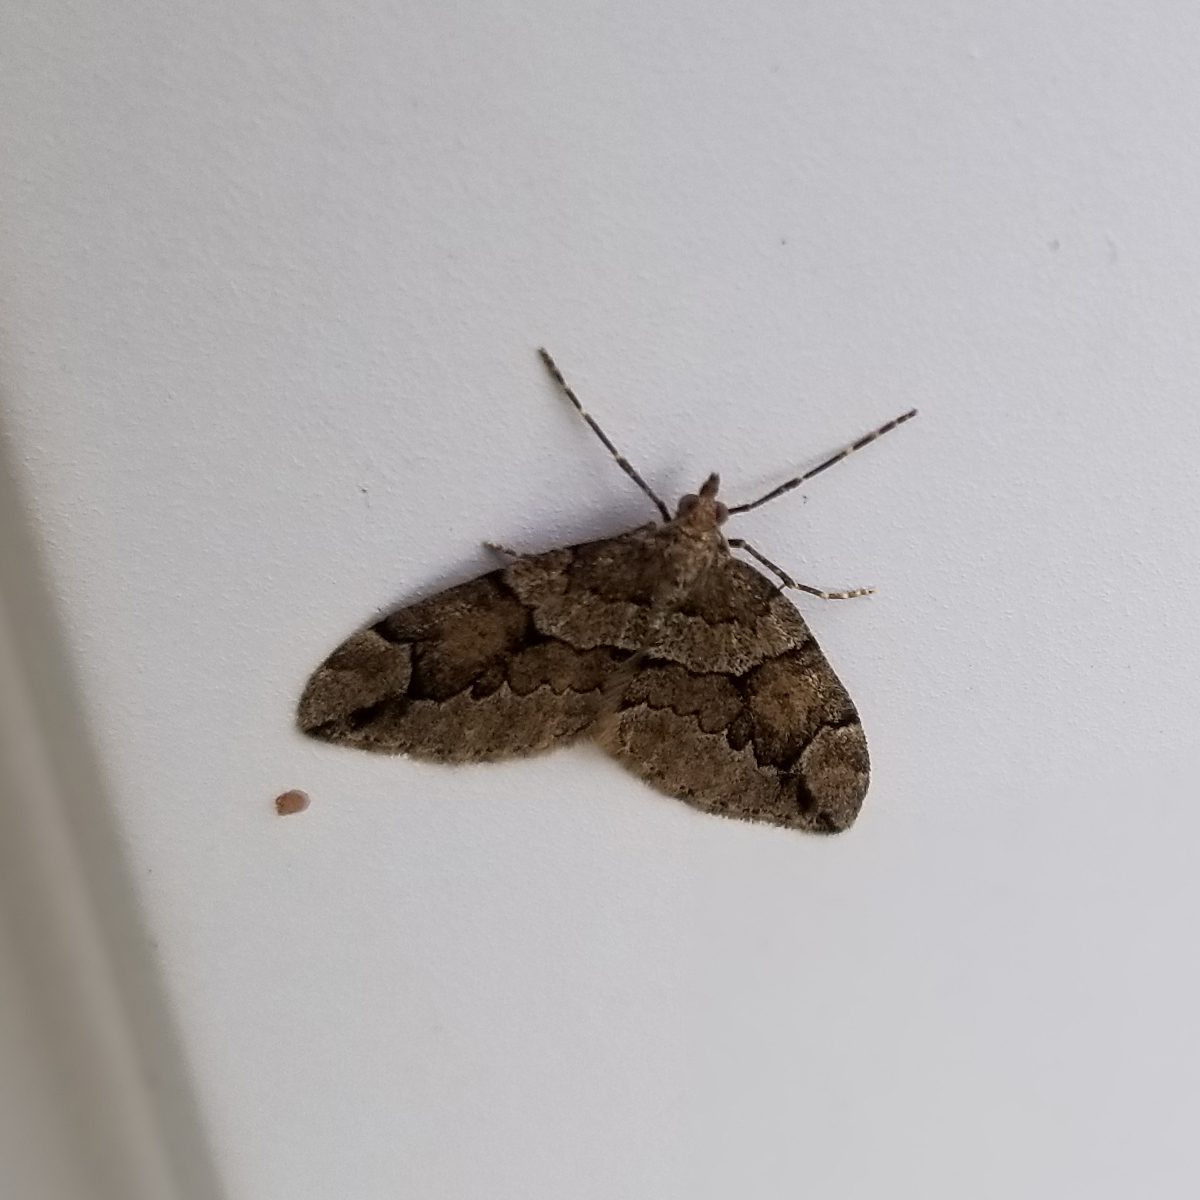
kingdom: Animalia
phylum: Arthropoda
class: Insecta
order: Lepidoptera
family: Geometridae
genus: Thera
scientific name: Thera juniperata
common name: Juniper carpet
